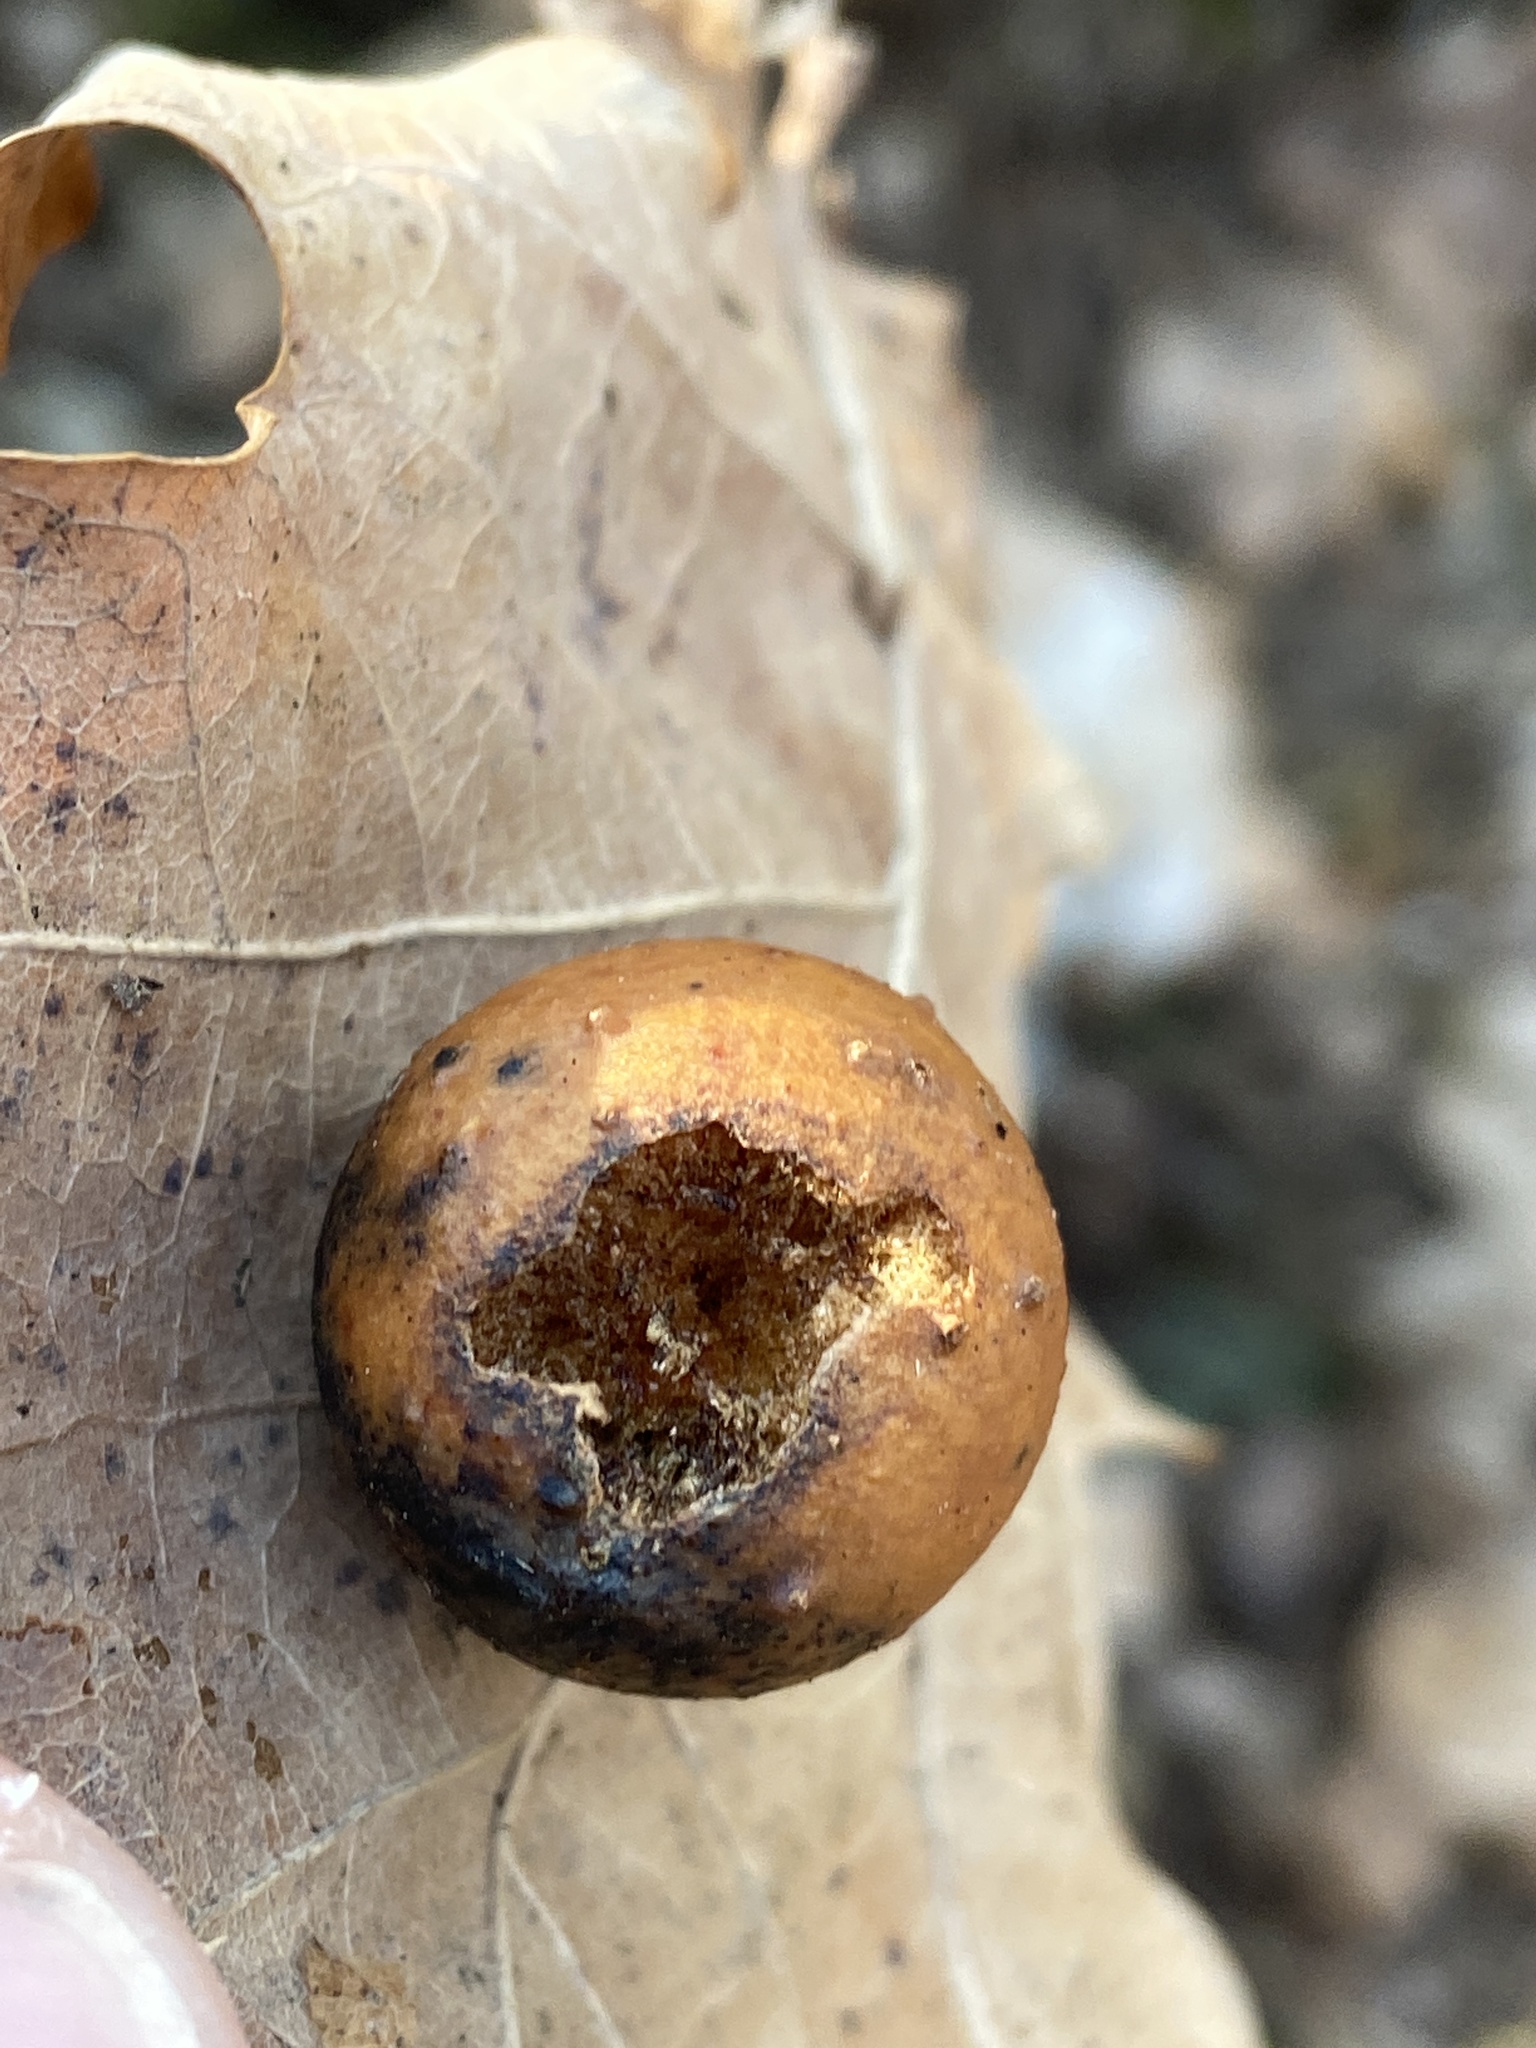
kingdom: Animalia
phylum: Arthropoda
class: Insecta
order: Hymenoptera
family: Cynipidae
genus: Cynips
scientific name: Cynips quercusfolii
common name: Cherry gall
